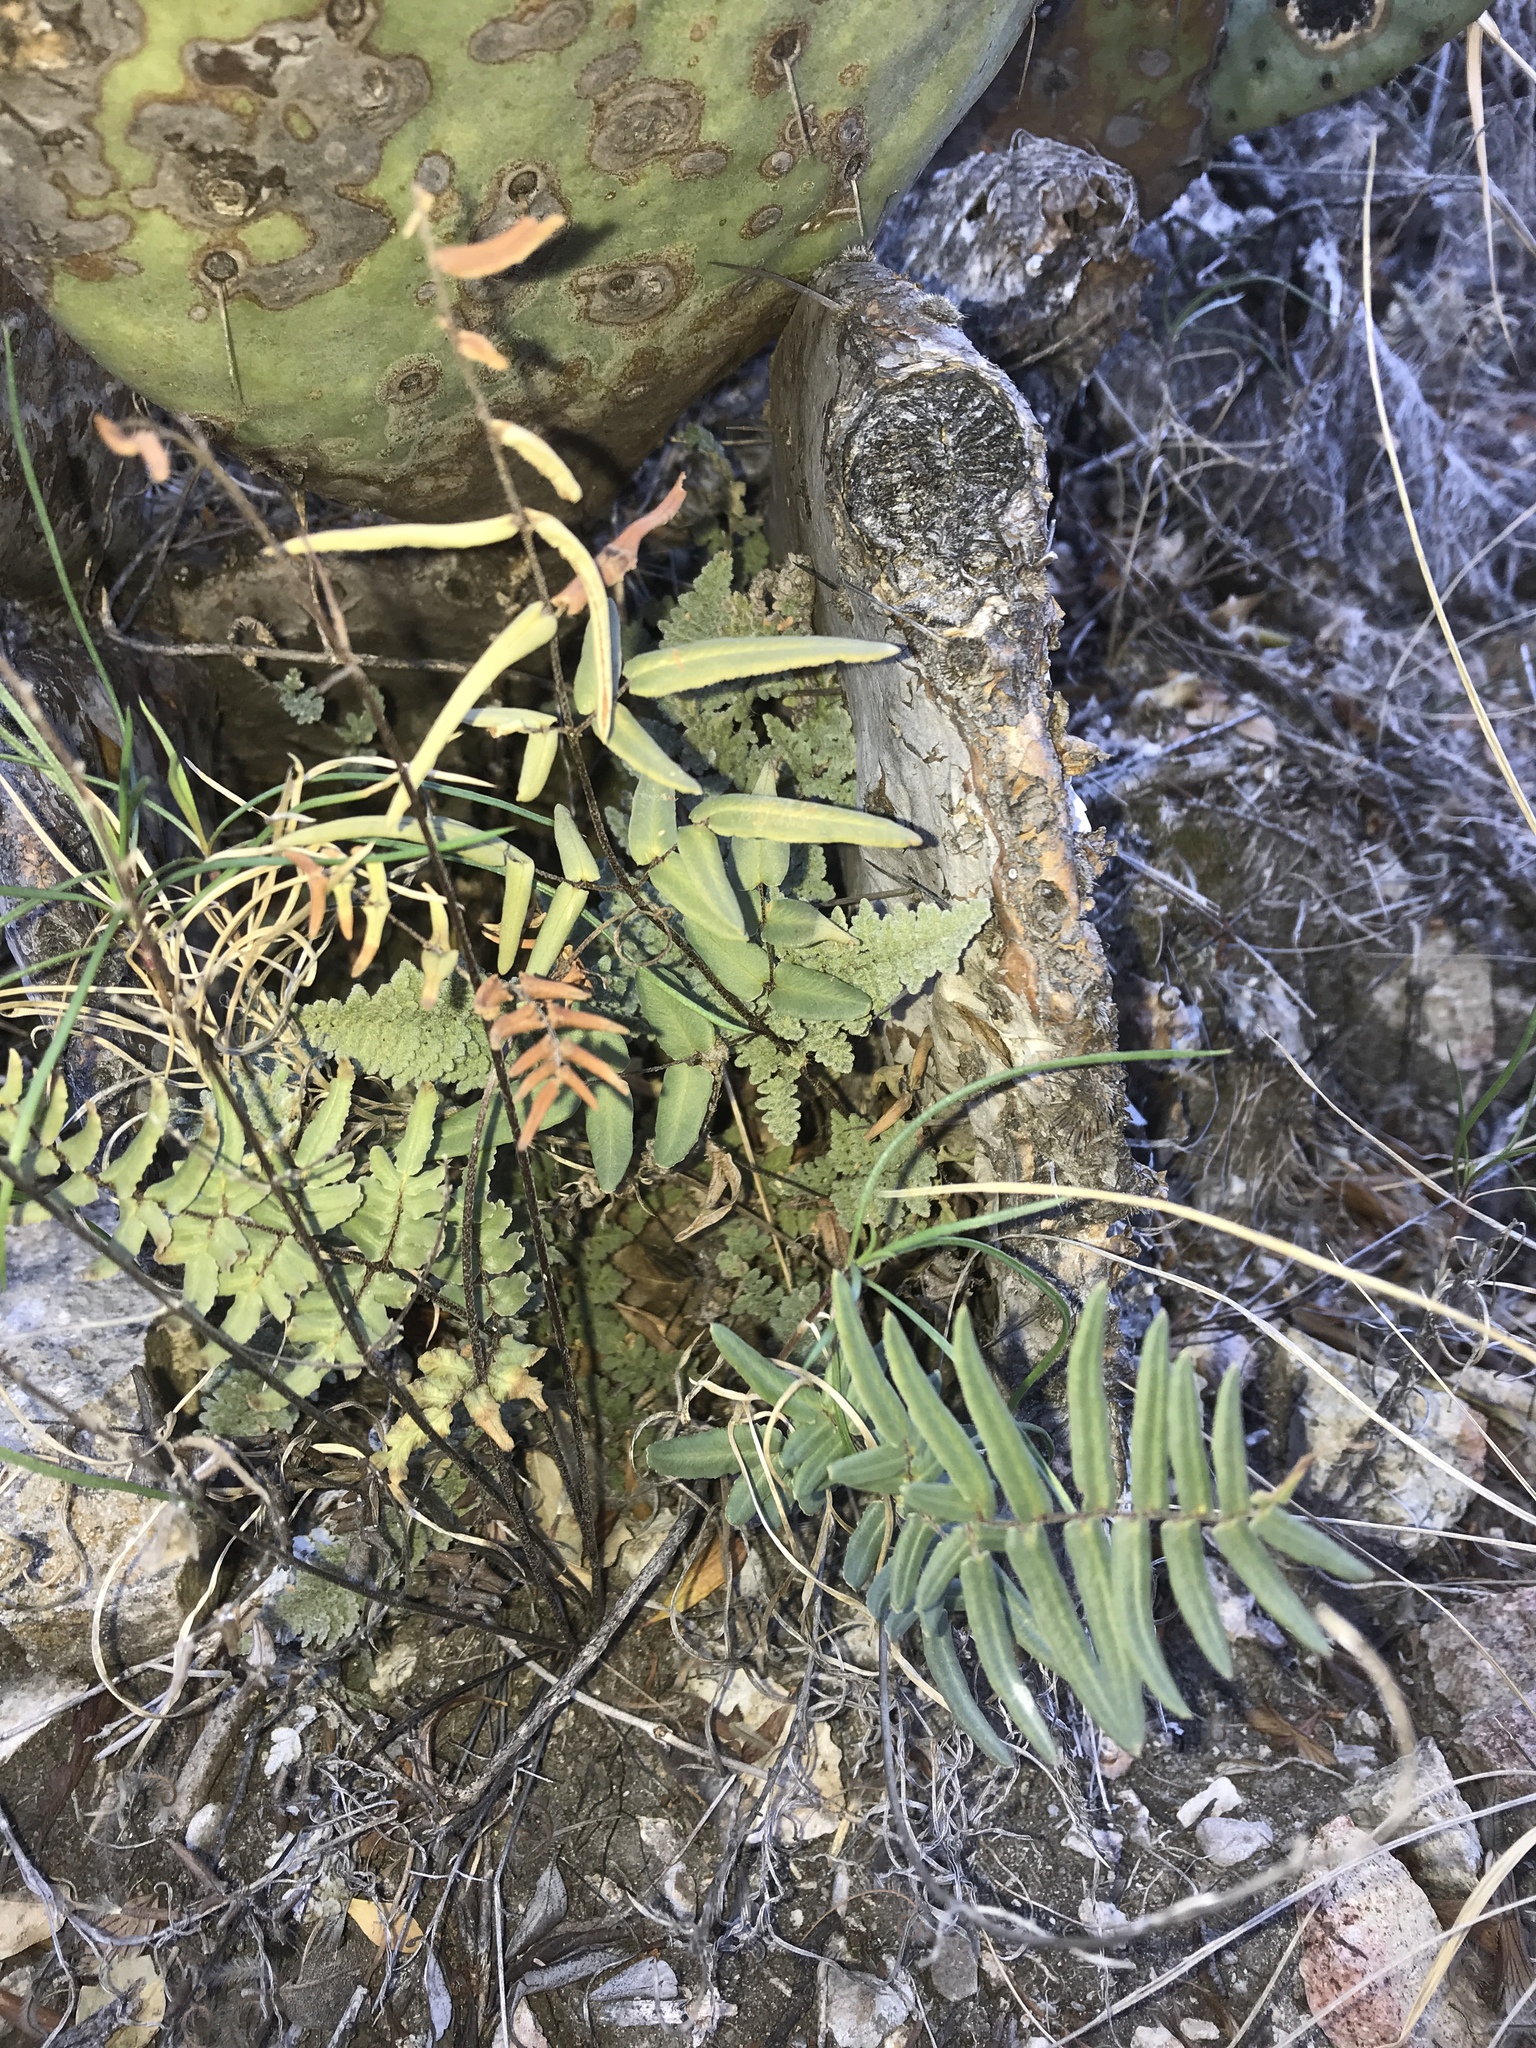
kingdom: Plantae
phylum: Tracheophyta
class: Polypodiopsida
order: Polypodiales
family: Pteridaceae
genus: Pellaea
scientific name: Pellaea atropurpurea
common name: Hairy cliffbrake
